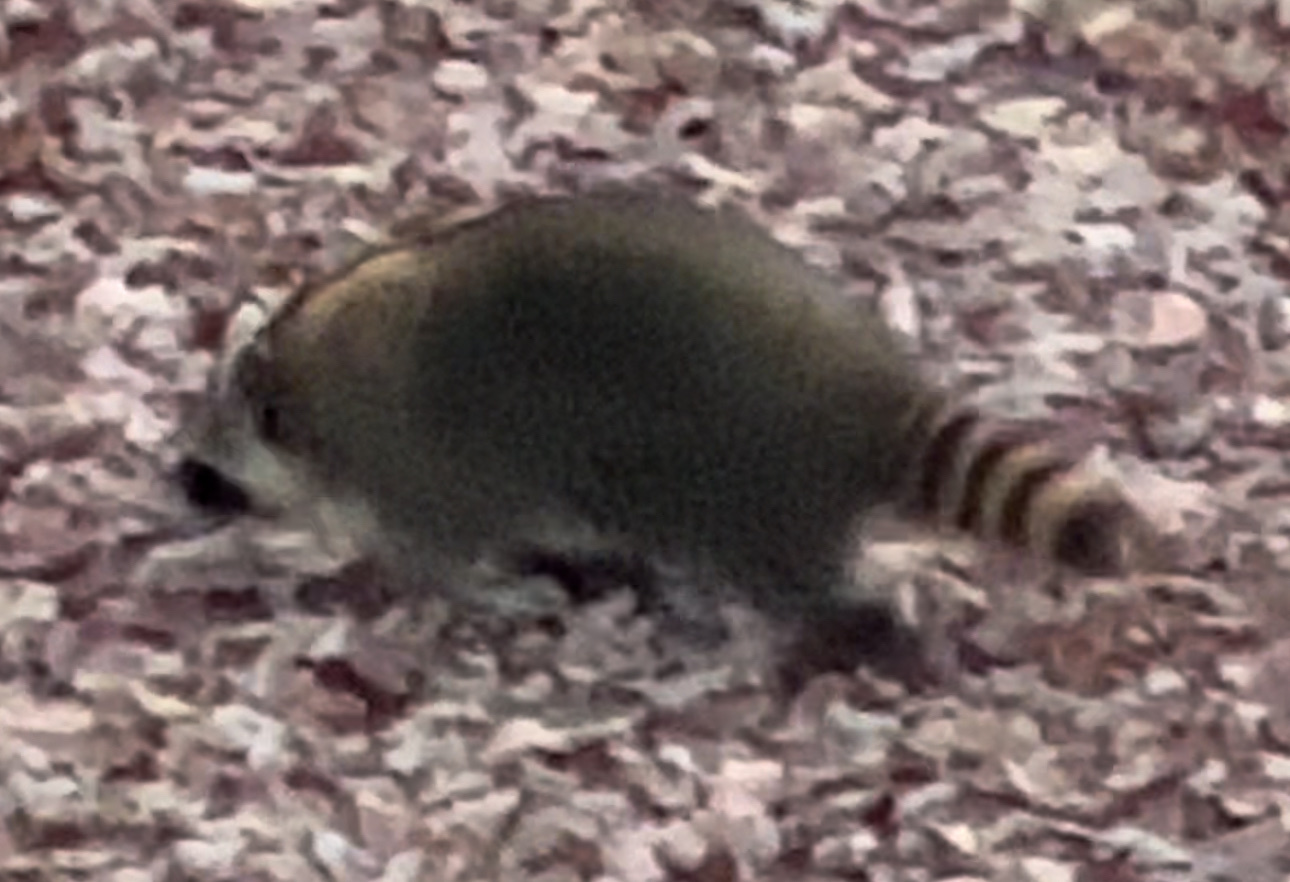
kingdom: Animalia
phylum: Chordata
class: Mammalia
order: Carnivora
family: Procyonidae
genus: Procyon
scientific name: Procyon lotor
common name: Raccoon
